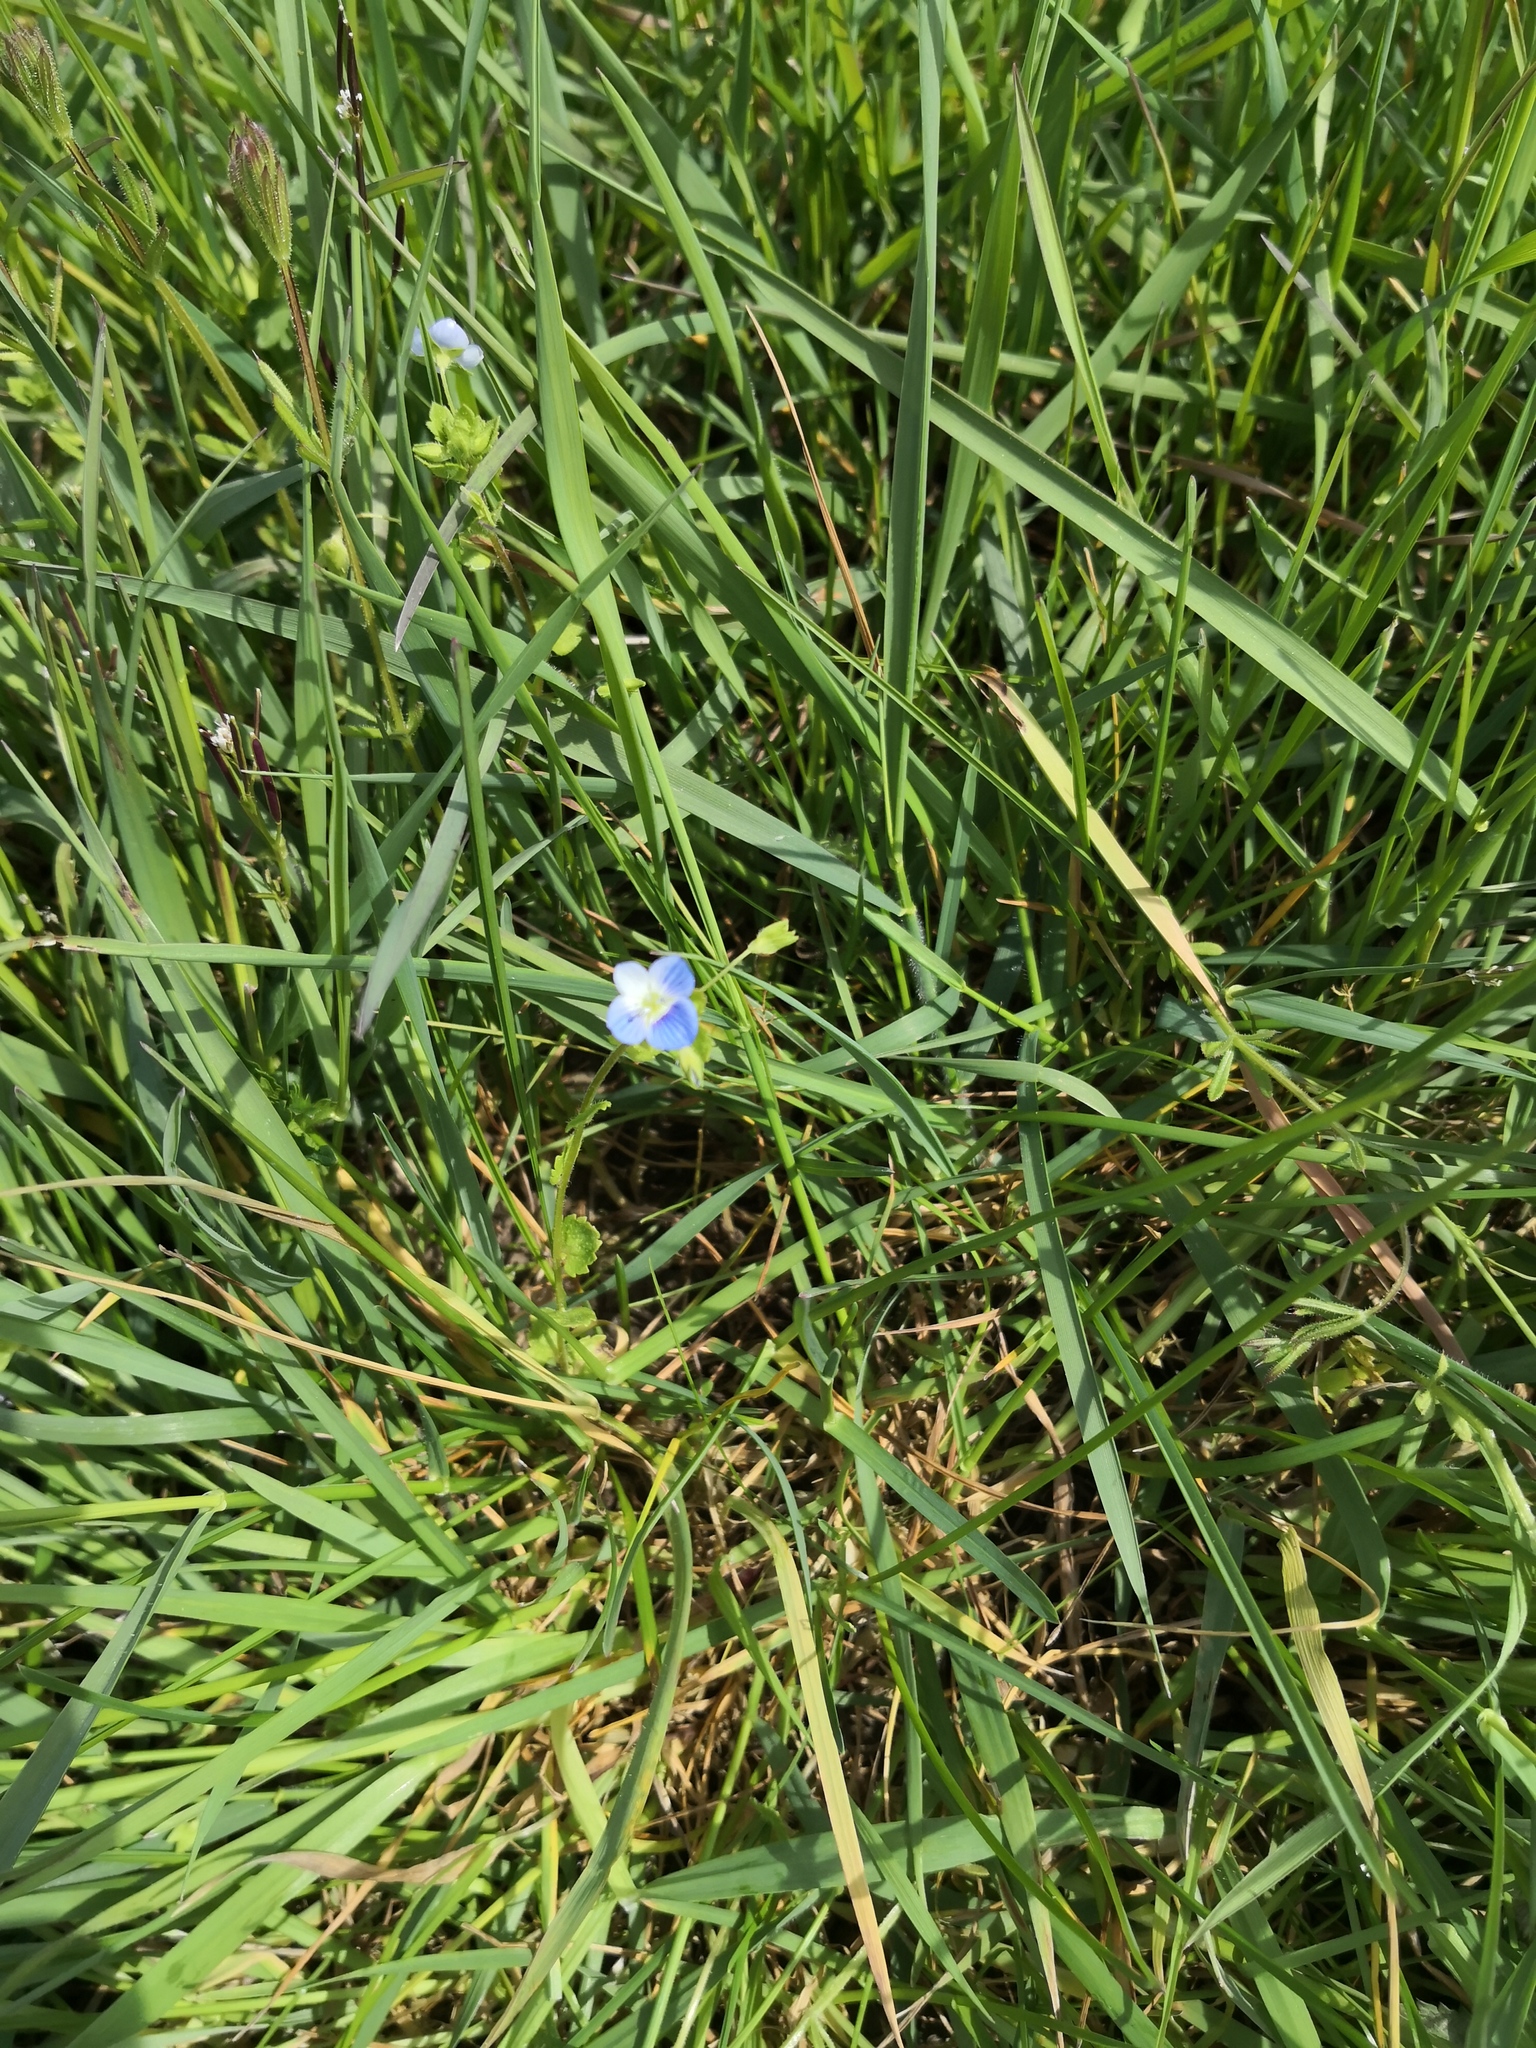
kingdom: Plantae
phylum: Tracheophyta
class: Magnoliopsida
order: Lamiales
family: Plantaginaceae
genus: Veronica
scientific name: Veronica persica
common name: Common field-speedwell
